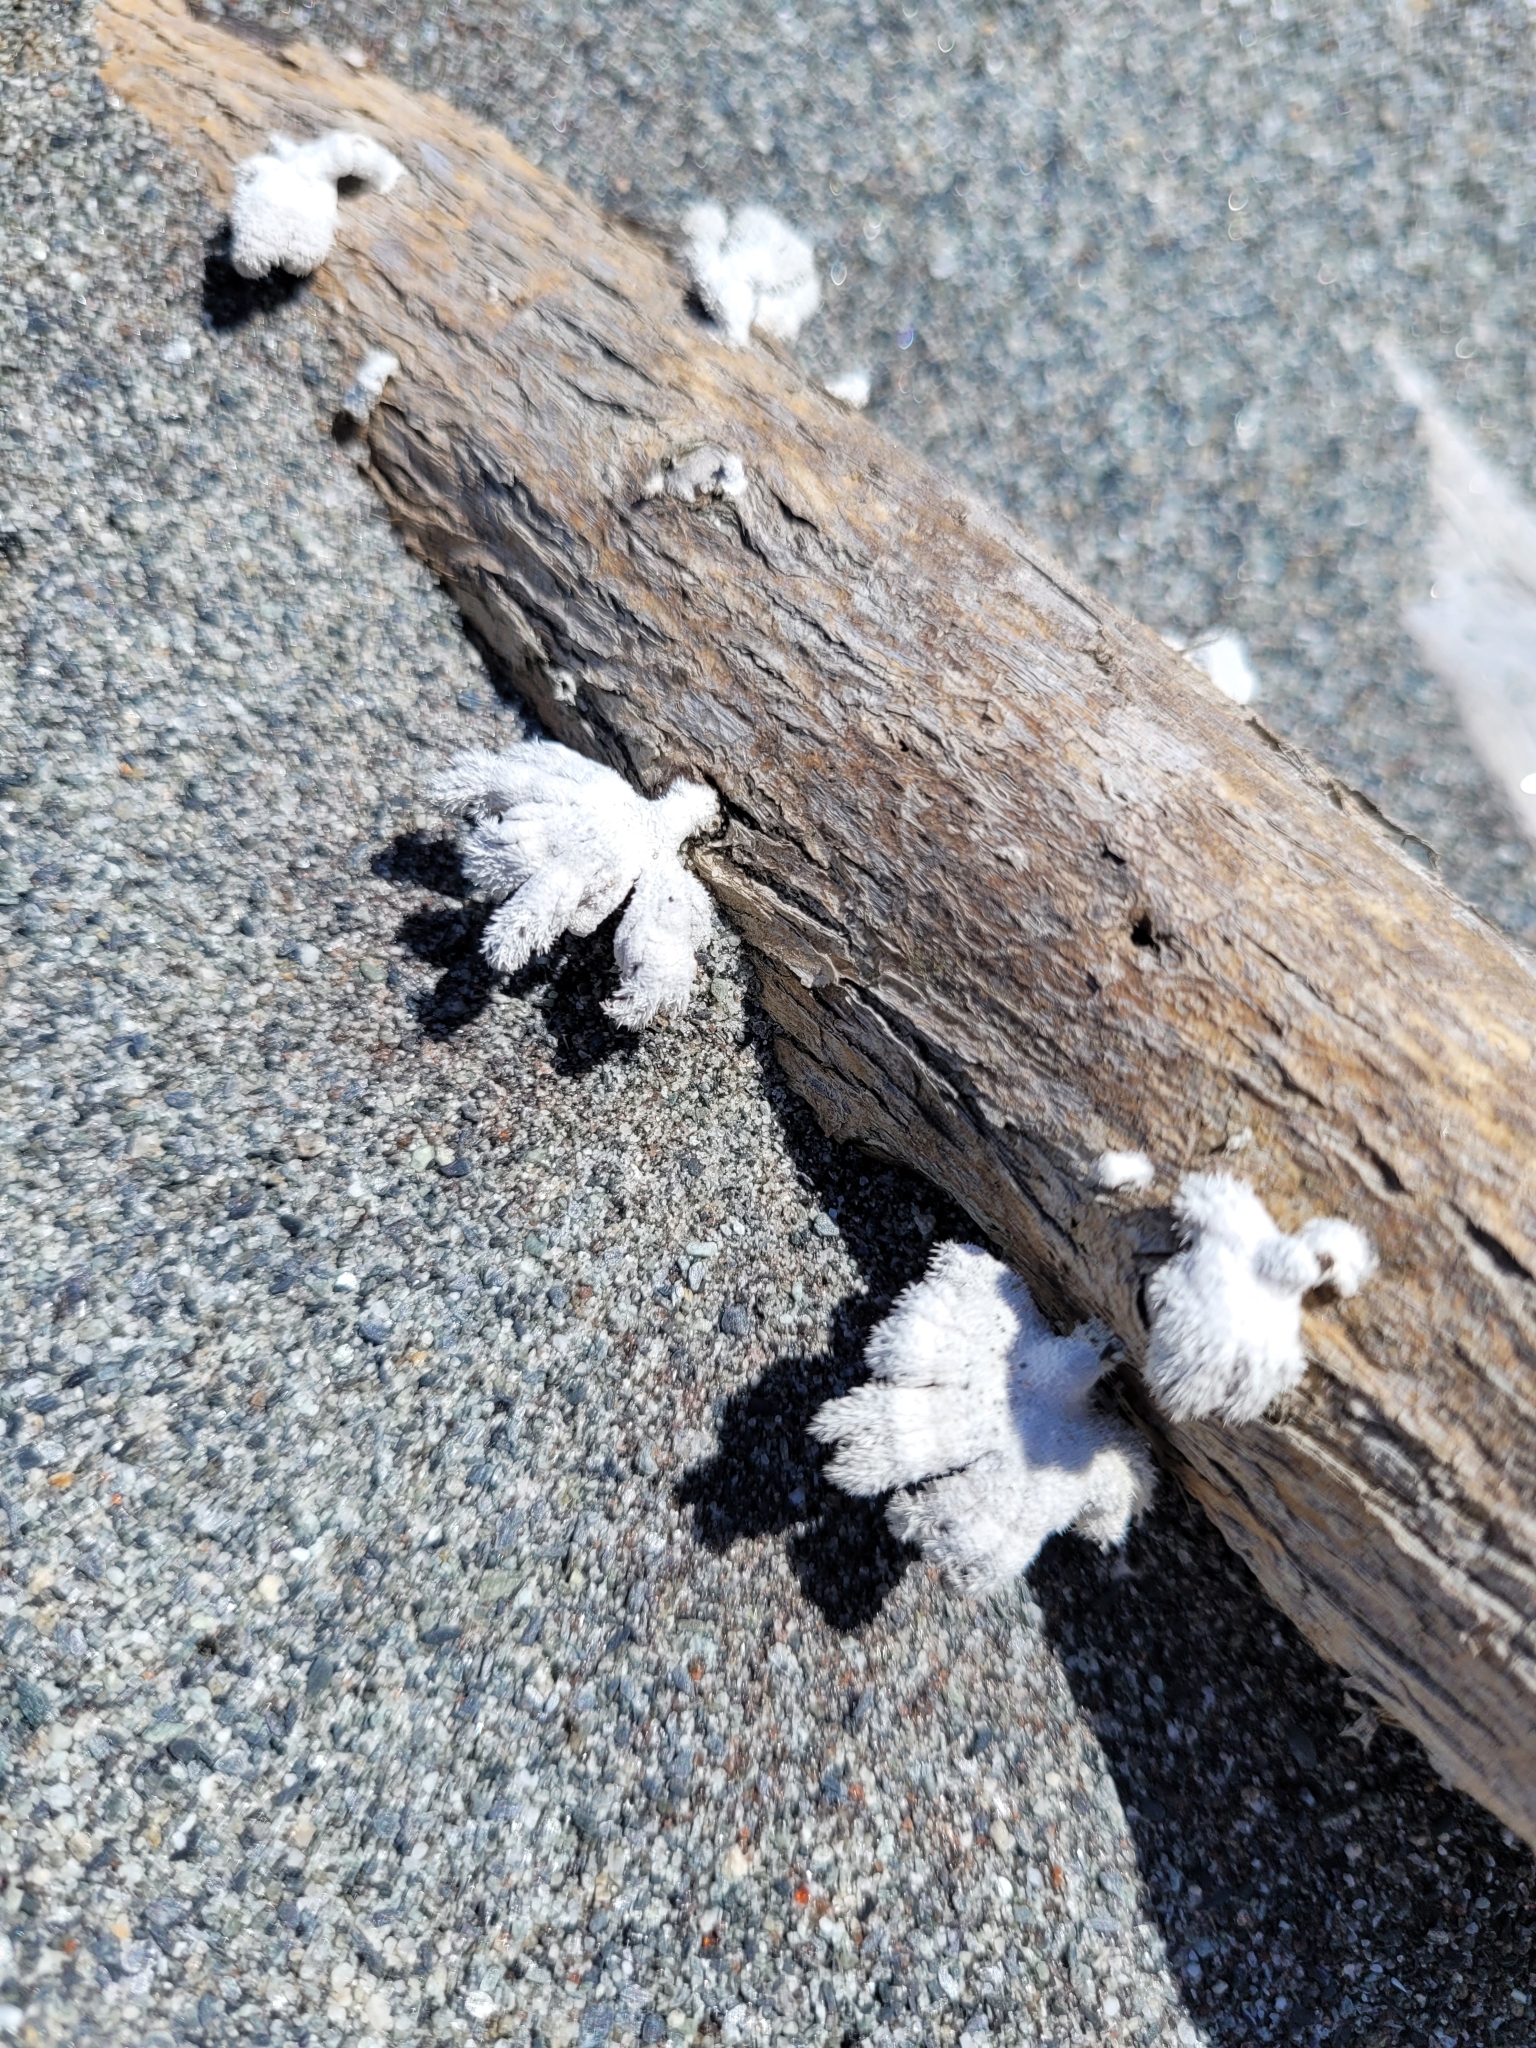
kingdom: Fungi
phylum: Basidiomycota
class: Agaricomycetes
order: Agaricales
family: Schizophyllaceae
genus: Schizophyllum
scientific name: Schizophyllum commune
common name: Common porecrust
